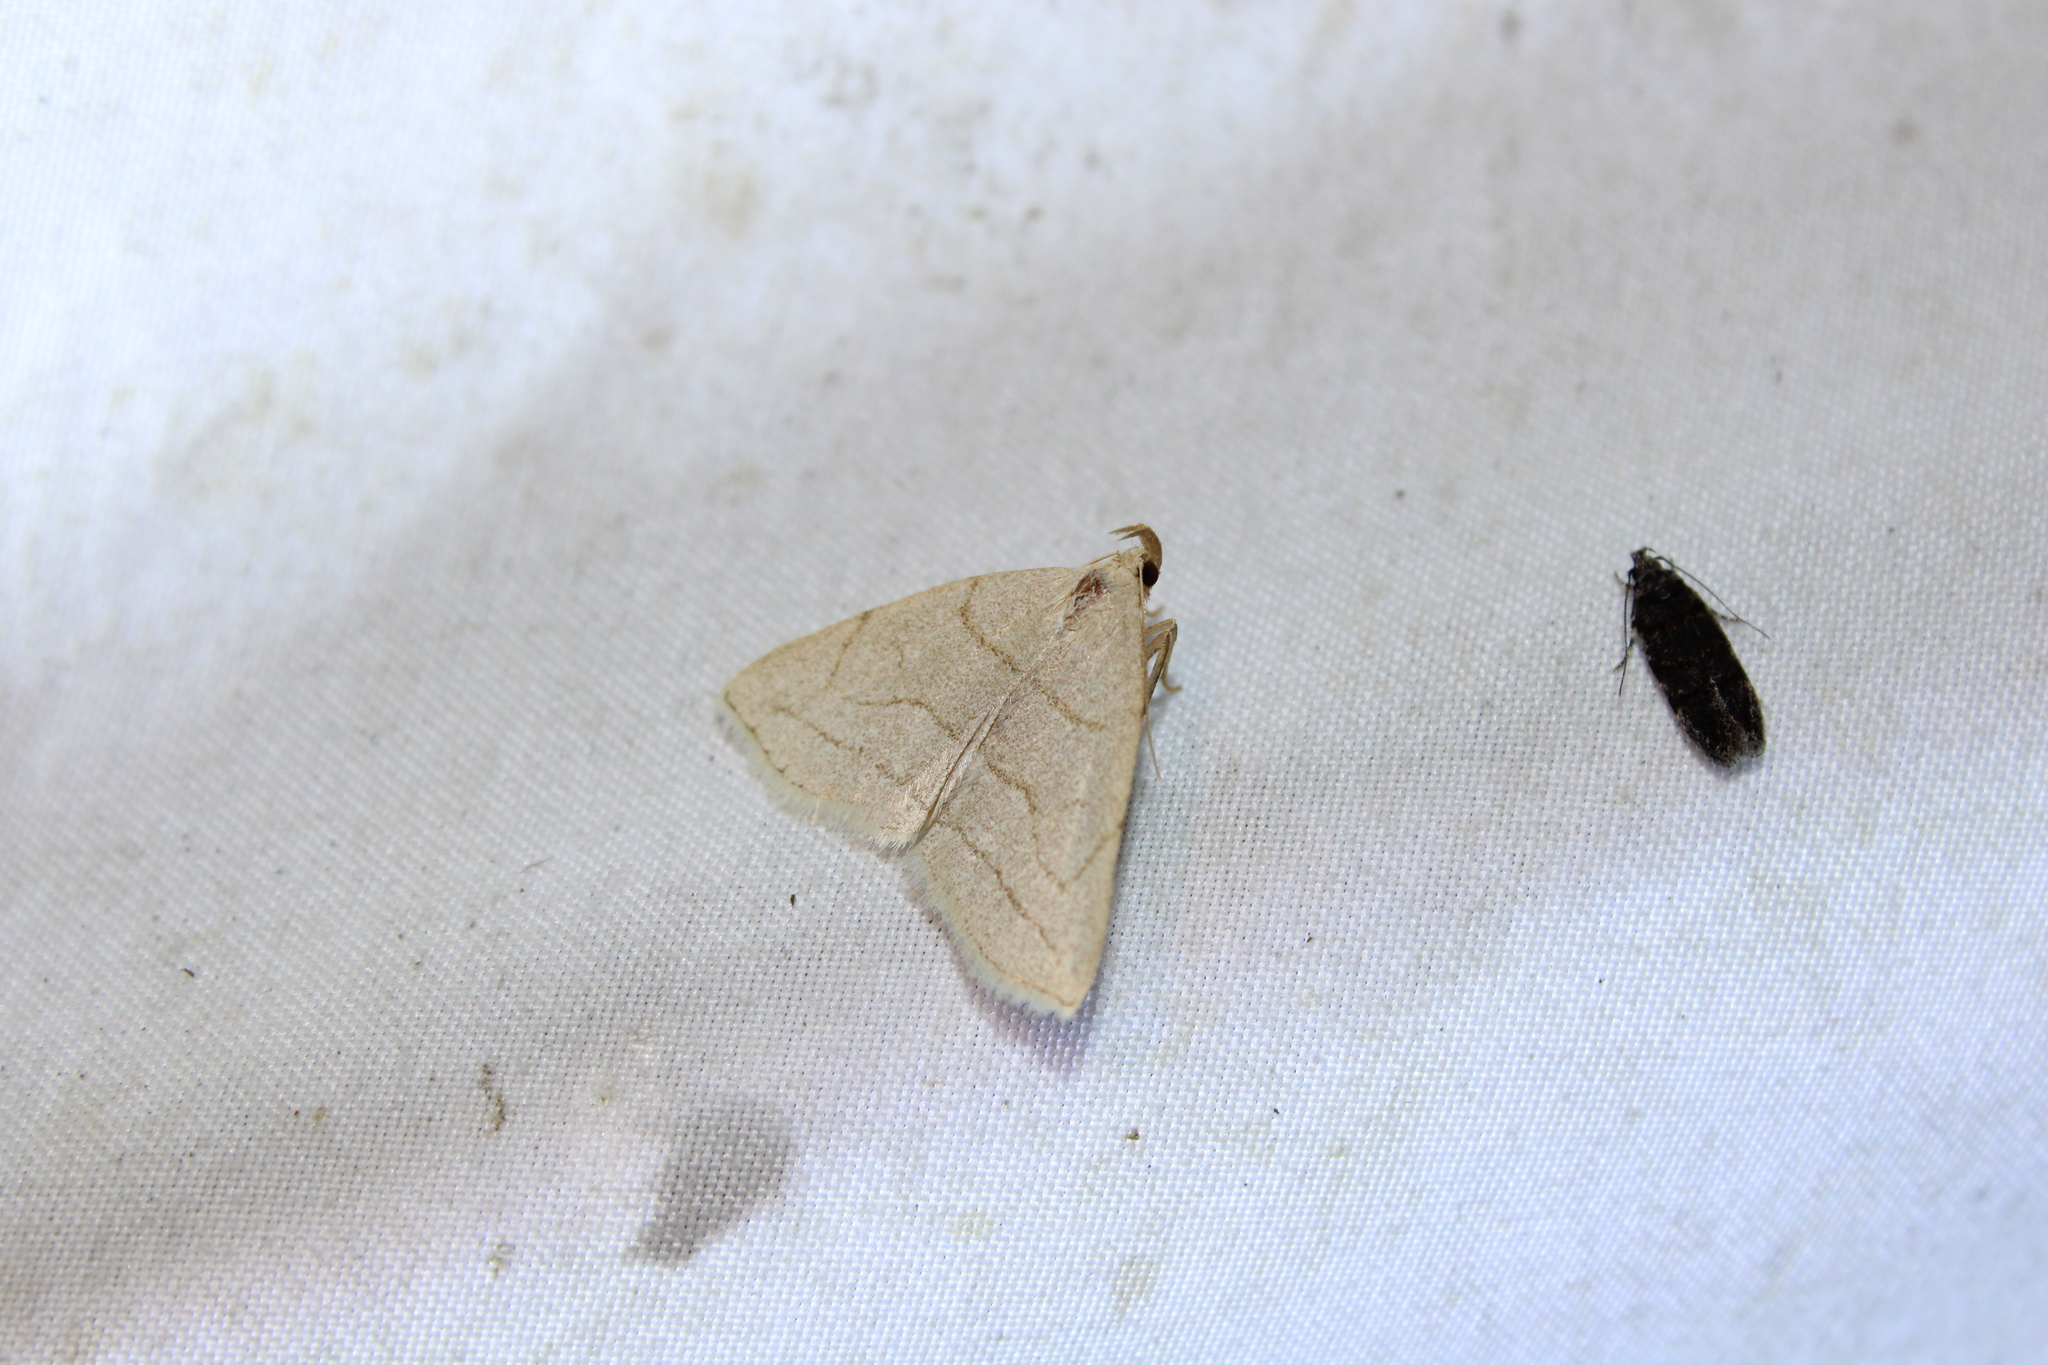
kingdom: Animalia
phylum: Arthropoda
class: Insecta
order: Lepidoptera
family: Erebidae
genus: Zanclognatha
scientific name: Zanclognatha pedipilalis
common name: Grayish fan-foot
